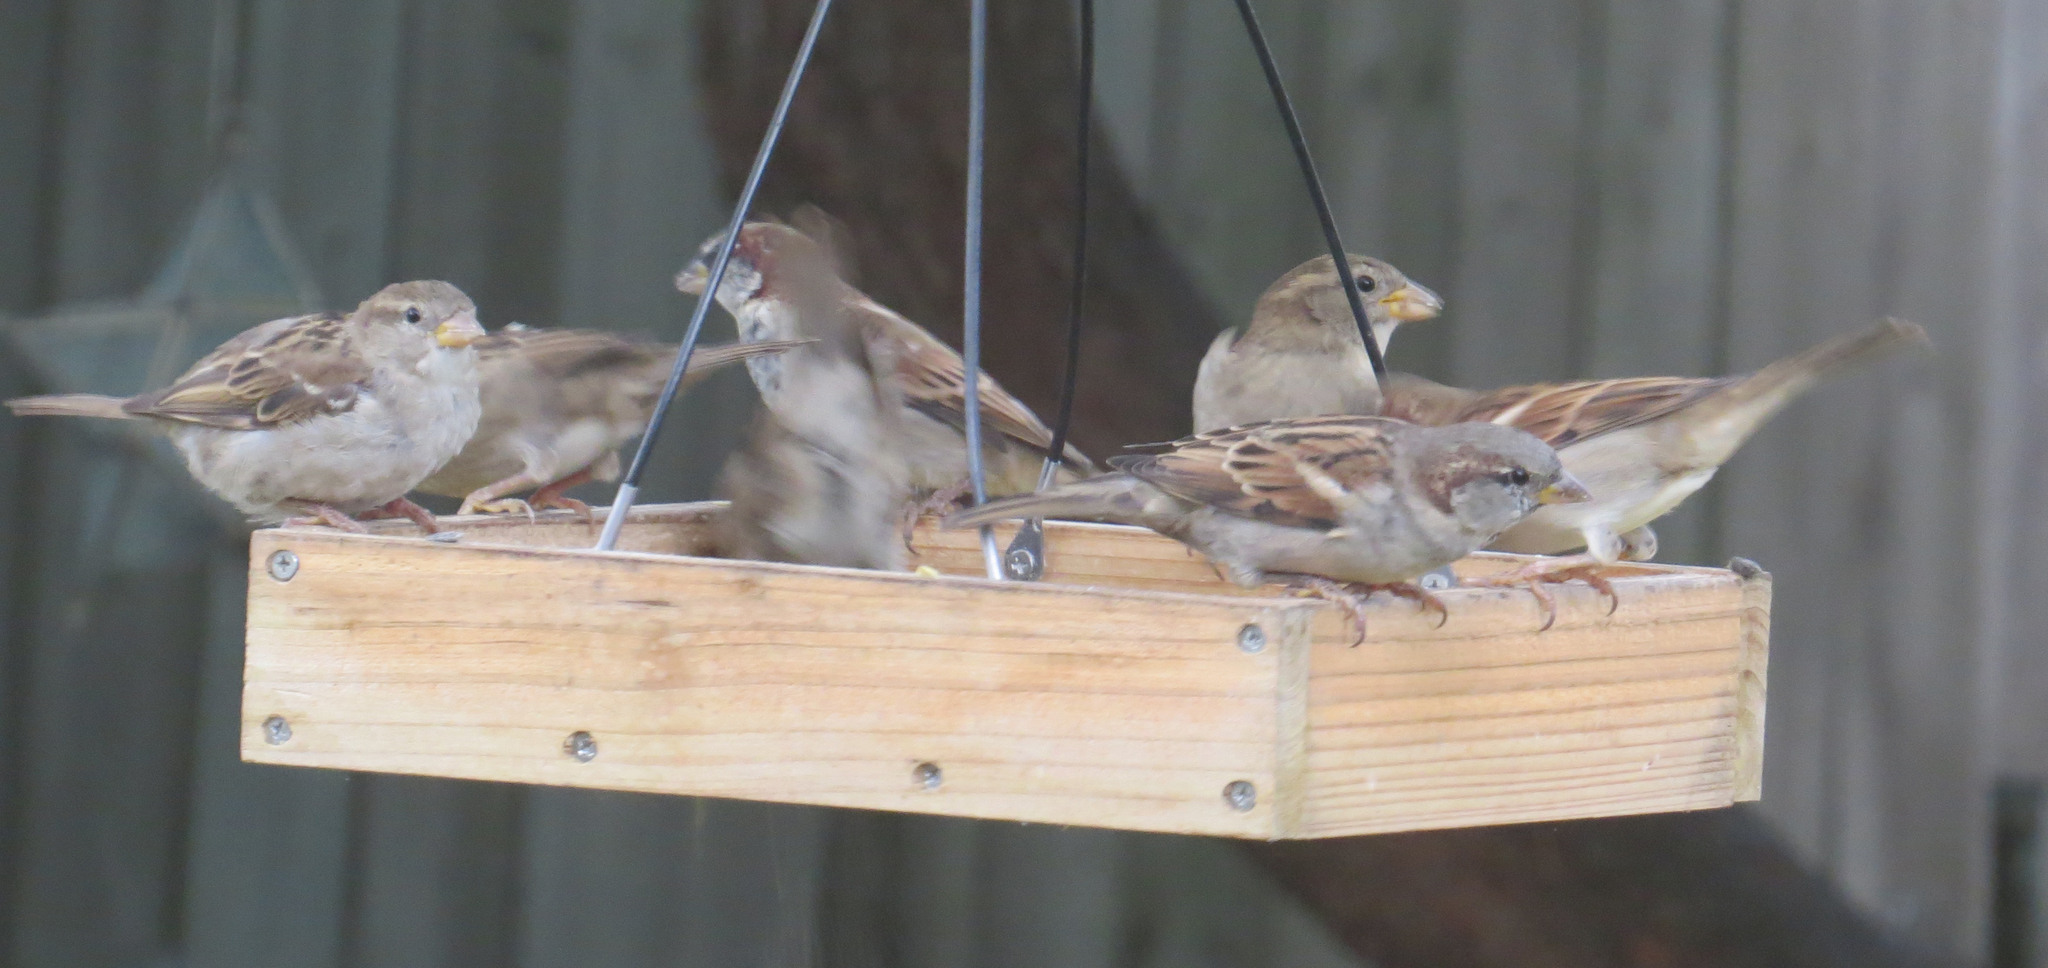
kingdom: Animalia
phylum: Chordata
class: Aves
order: Passeriformes
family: Passeridae
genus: Passer
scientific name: Passer domesticus
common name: House sparrow
